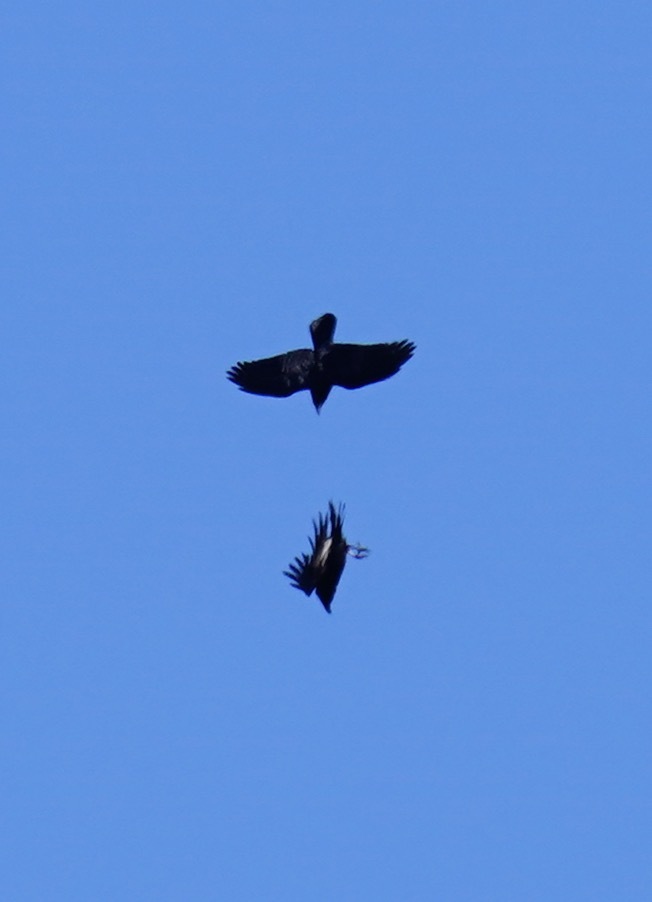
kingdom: Animalia
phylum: Chordata
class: Aves
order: Passeriformes
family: Corvidae
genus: Corvus
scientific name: Corvus corax
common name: Common raven
